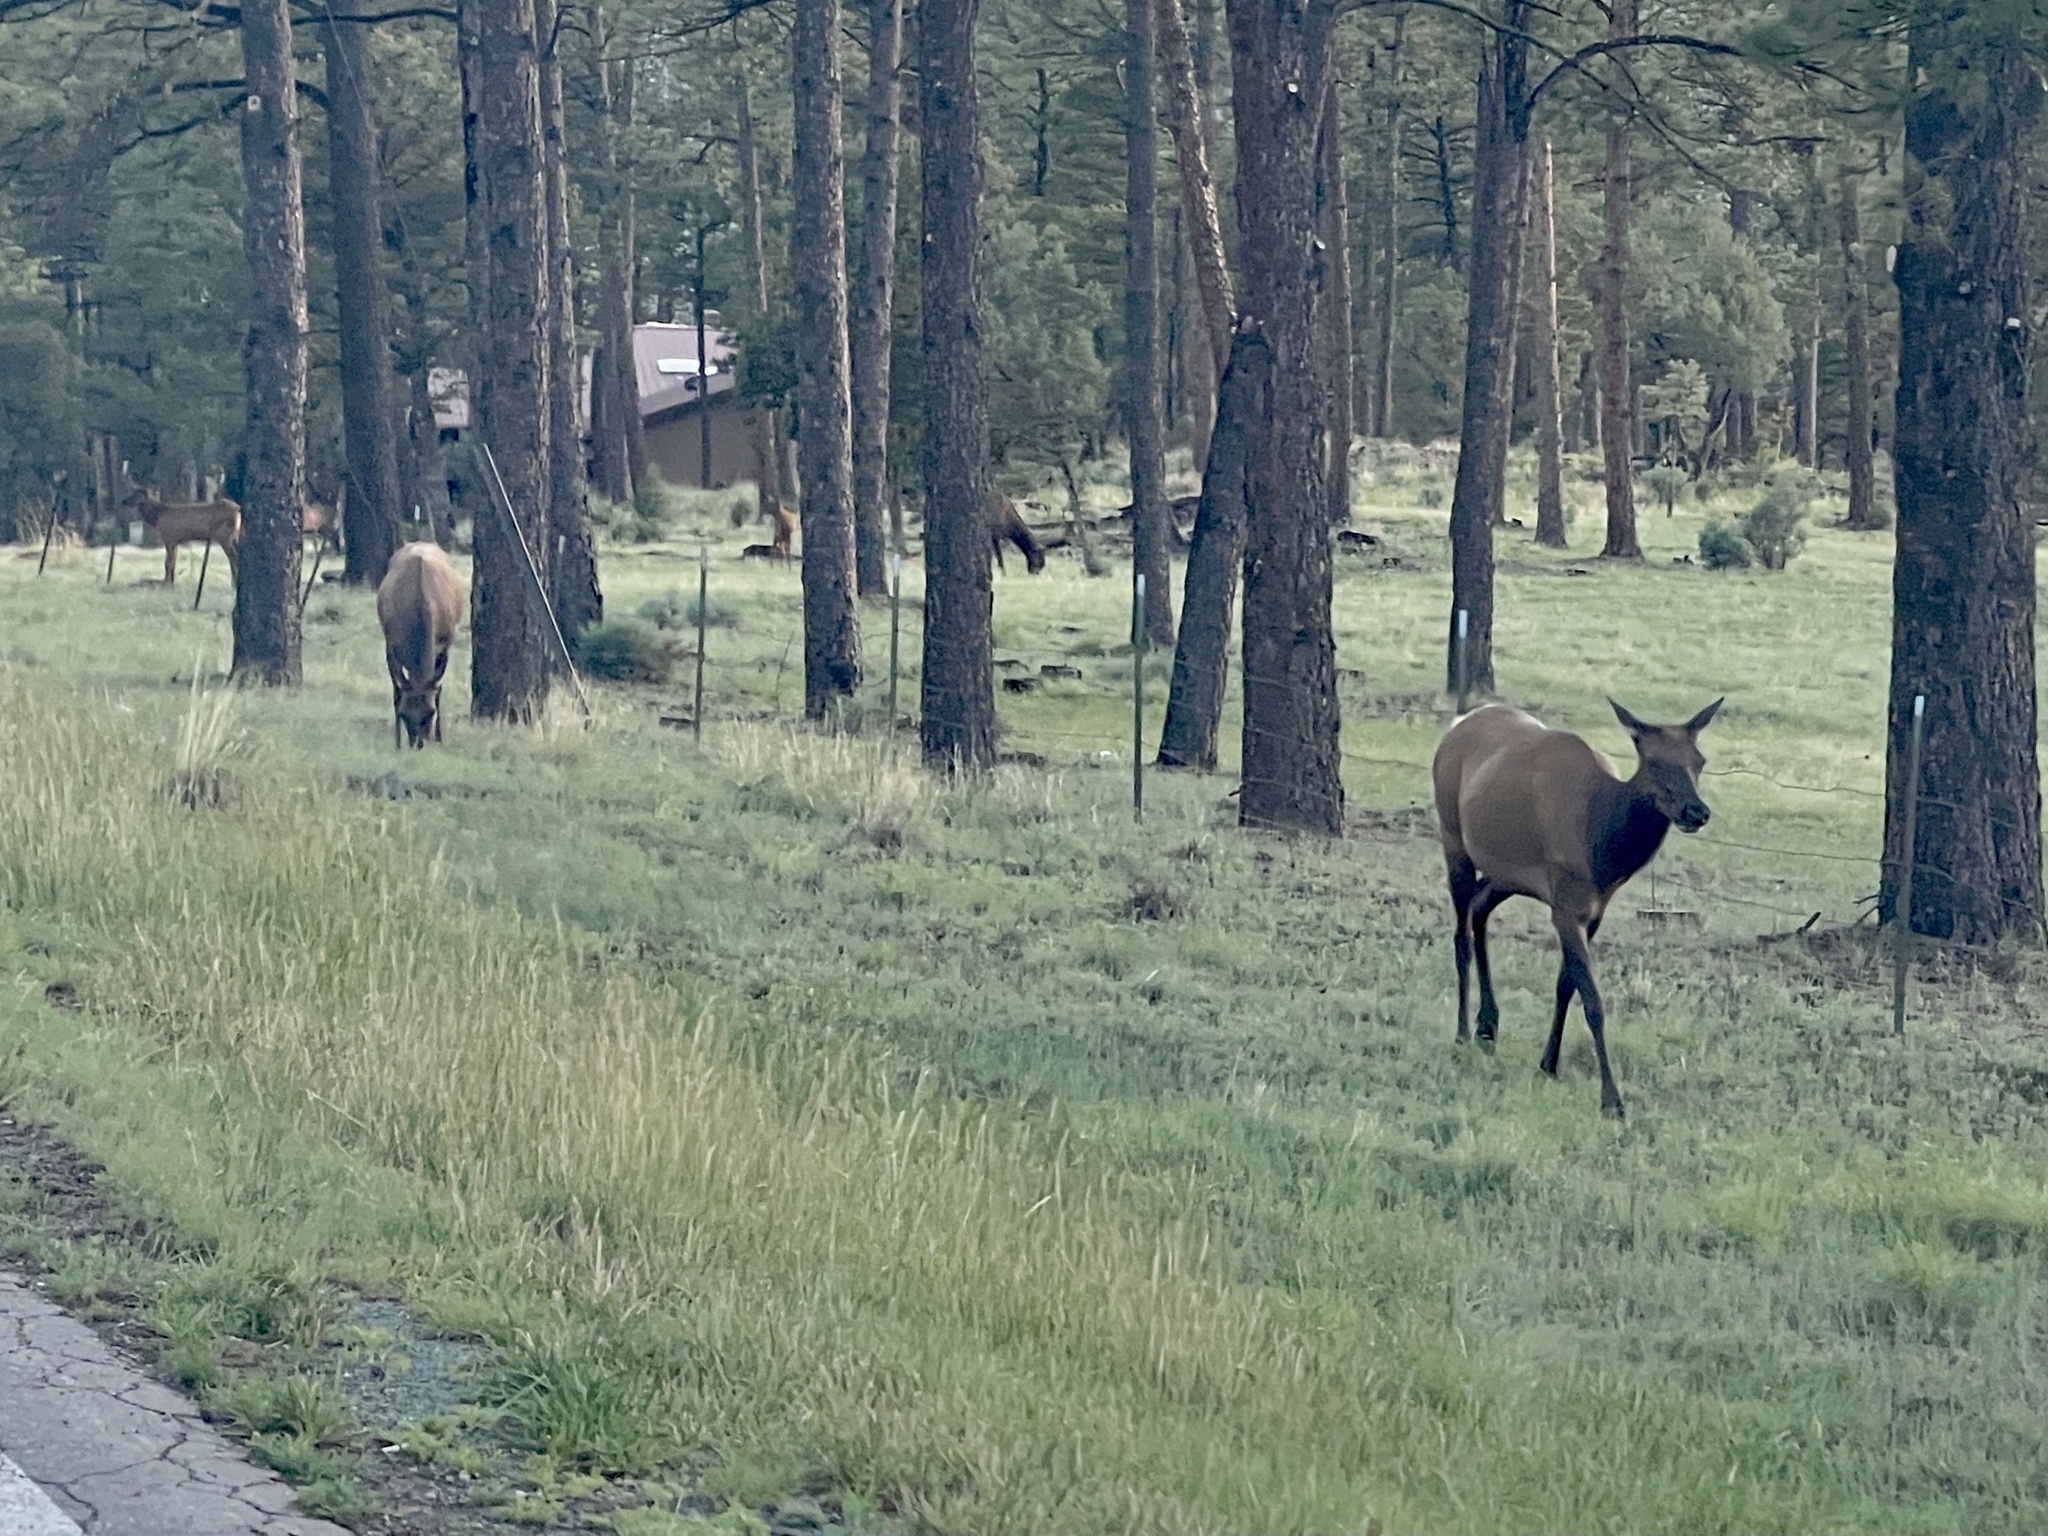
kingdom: Animalia
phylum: Chordata
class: Mammalia
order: Artiodactyla
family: Cervidae
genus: Cervus
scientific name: Cervus elaphus
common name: Red deer
